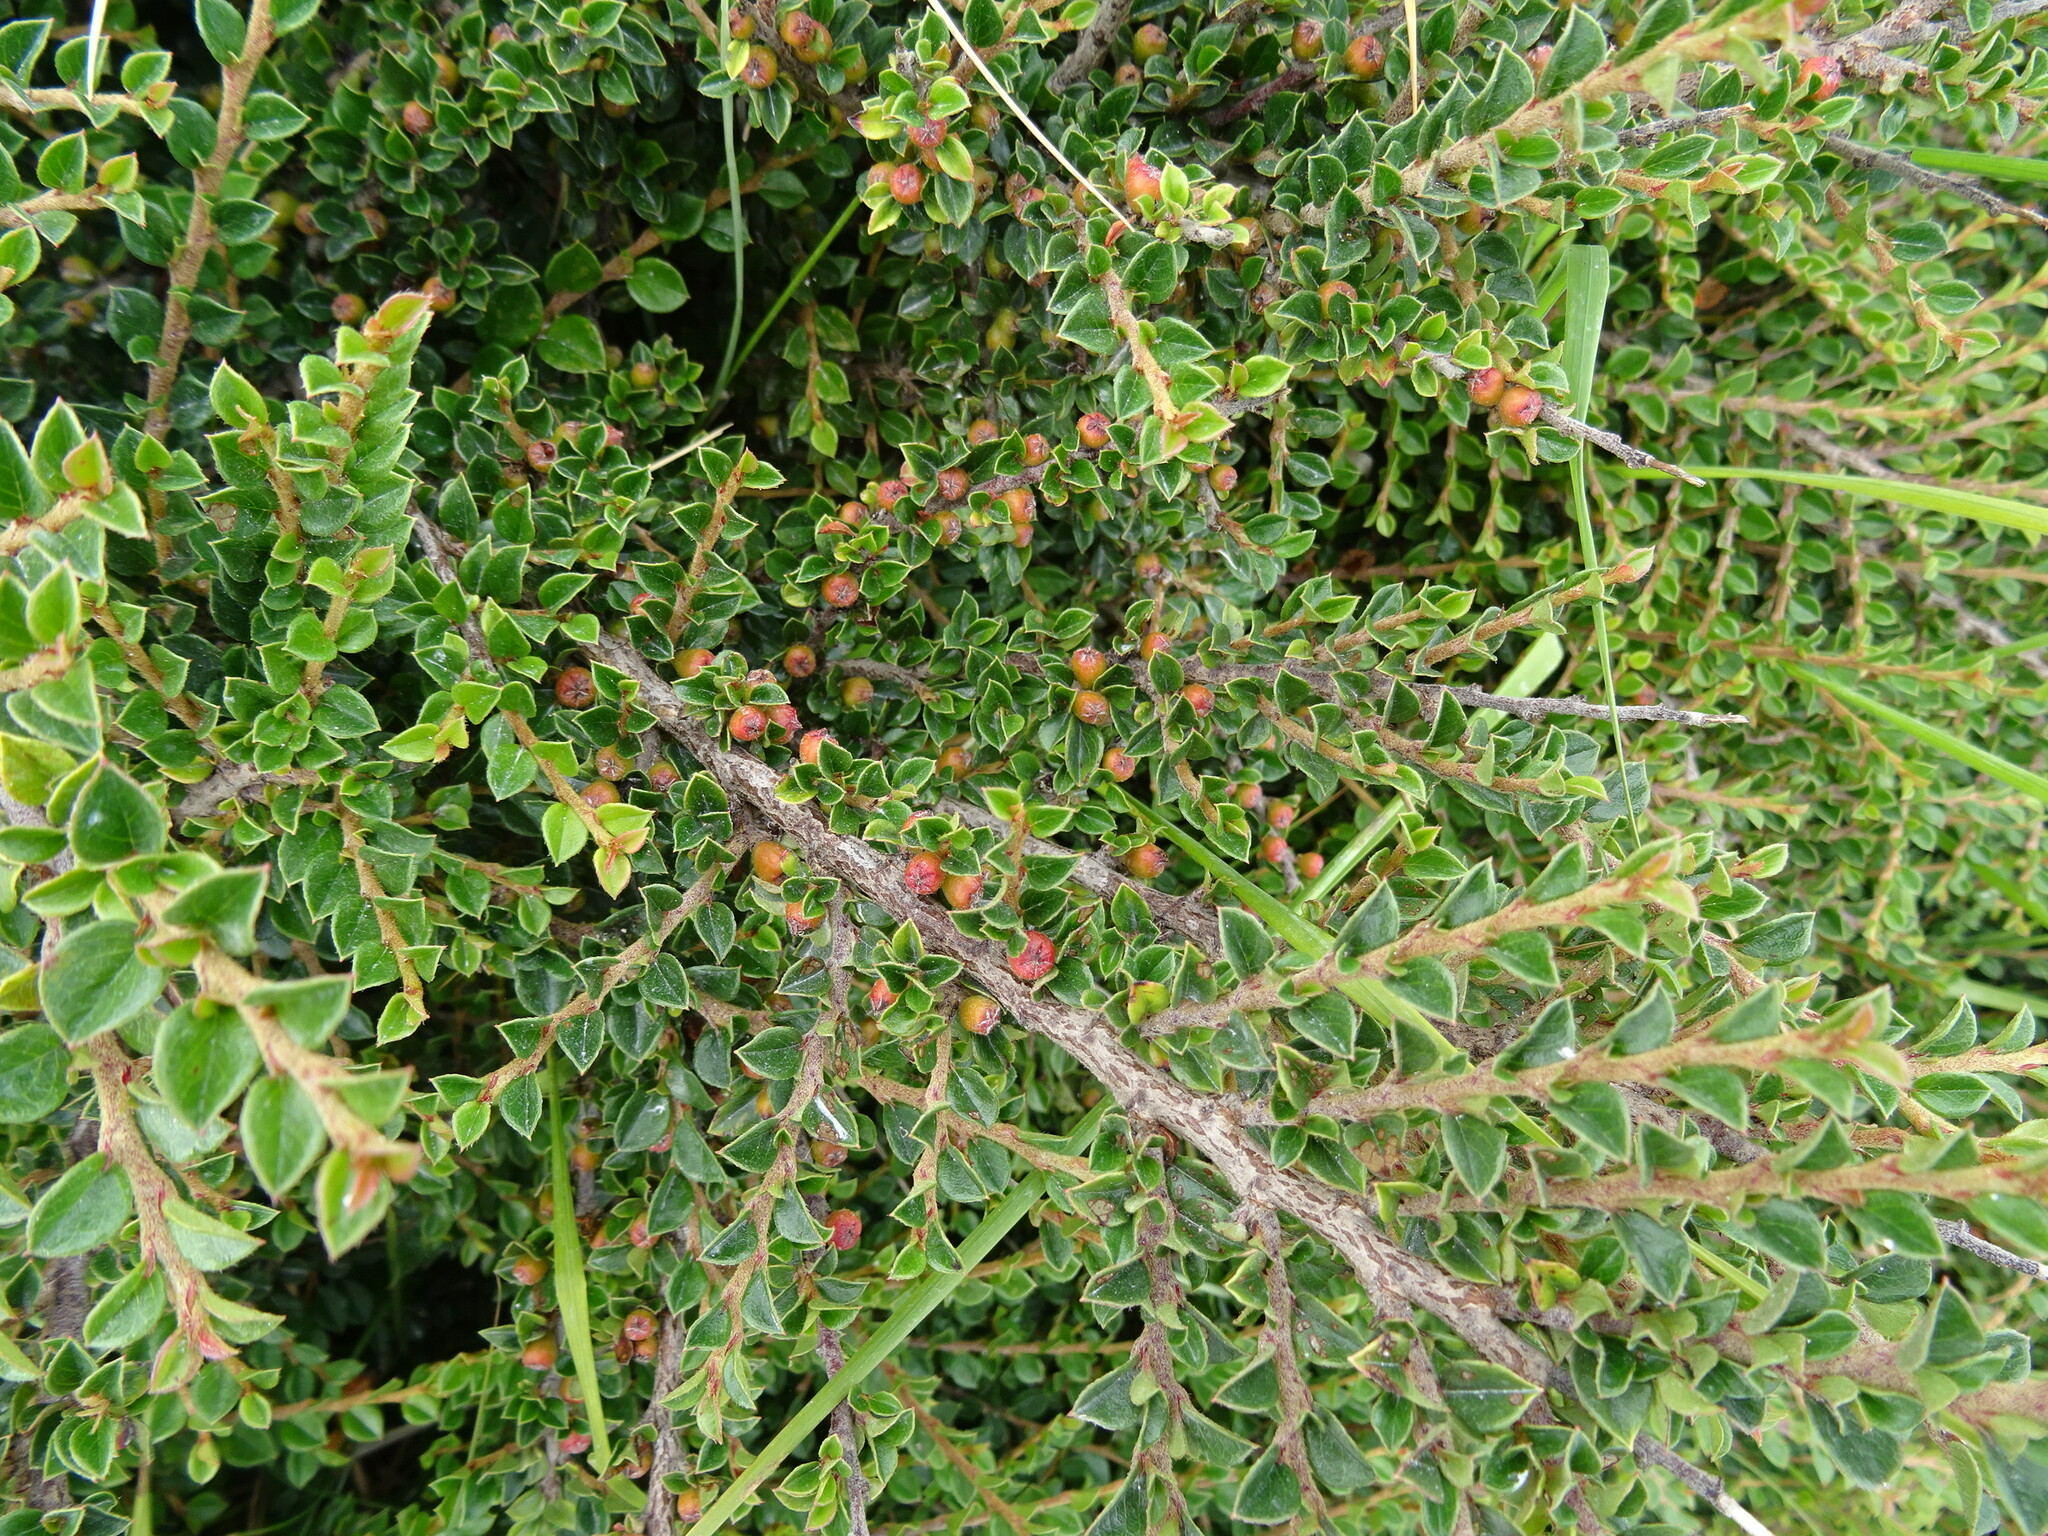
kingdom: Plantae
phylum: Tracheophyta
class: Magnoliopsida
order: Rosales
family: Rosaceae
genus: Cotoneaster
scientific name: Cotoneaster horizontalis
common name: Wall cotoneaster
